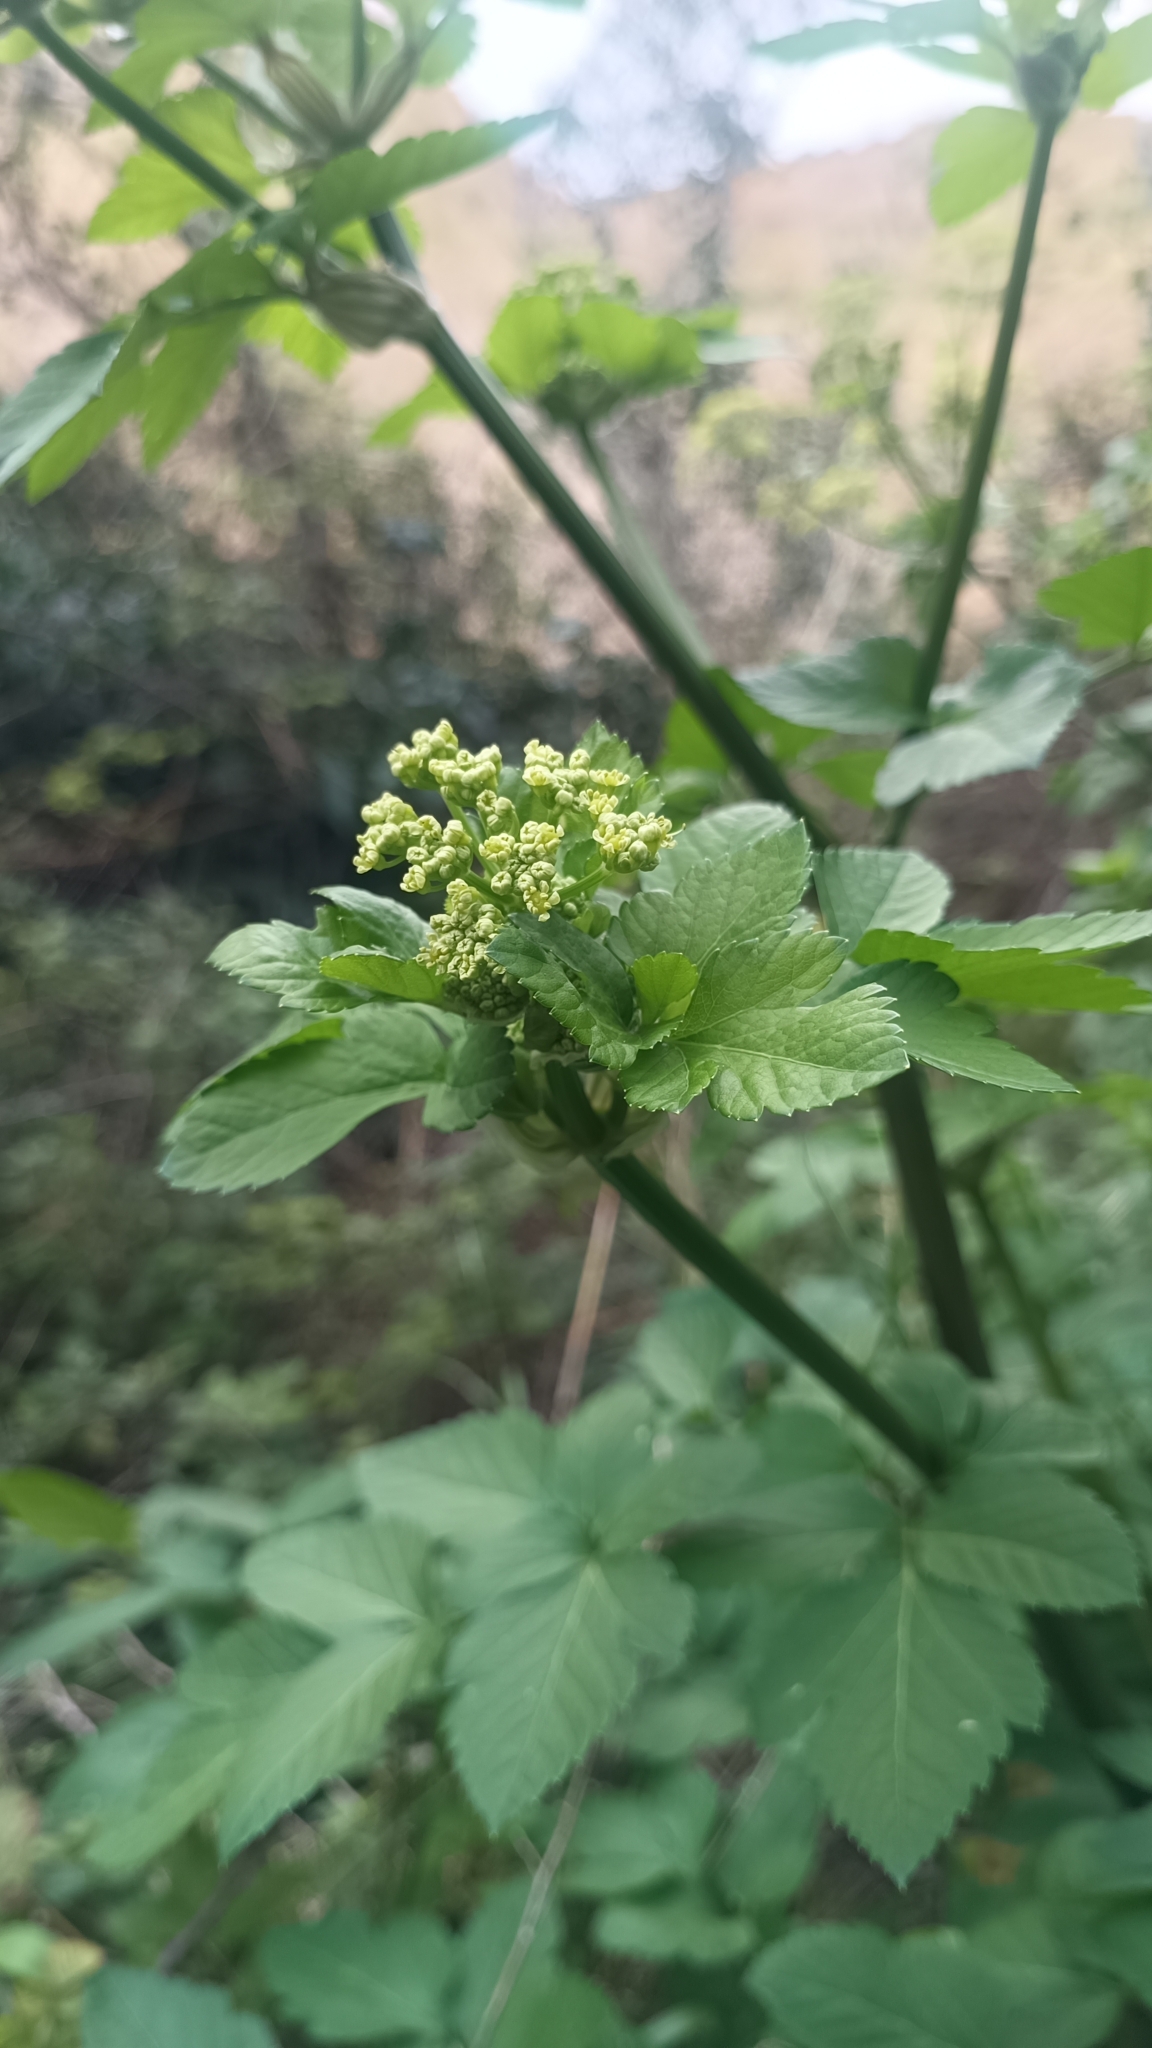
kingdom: Plantae
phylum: Tracheophyta
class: Magnoliopsida
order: Apiales
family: Apiaceae
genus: Smyrnium
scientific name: Smyrnium olusatrum
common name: Alexanders
